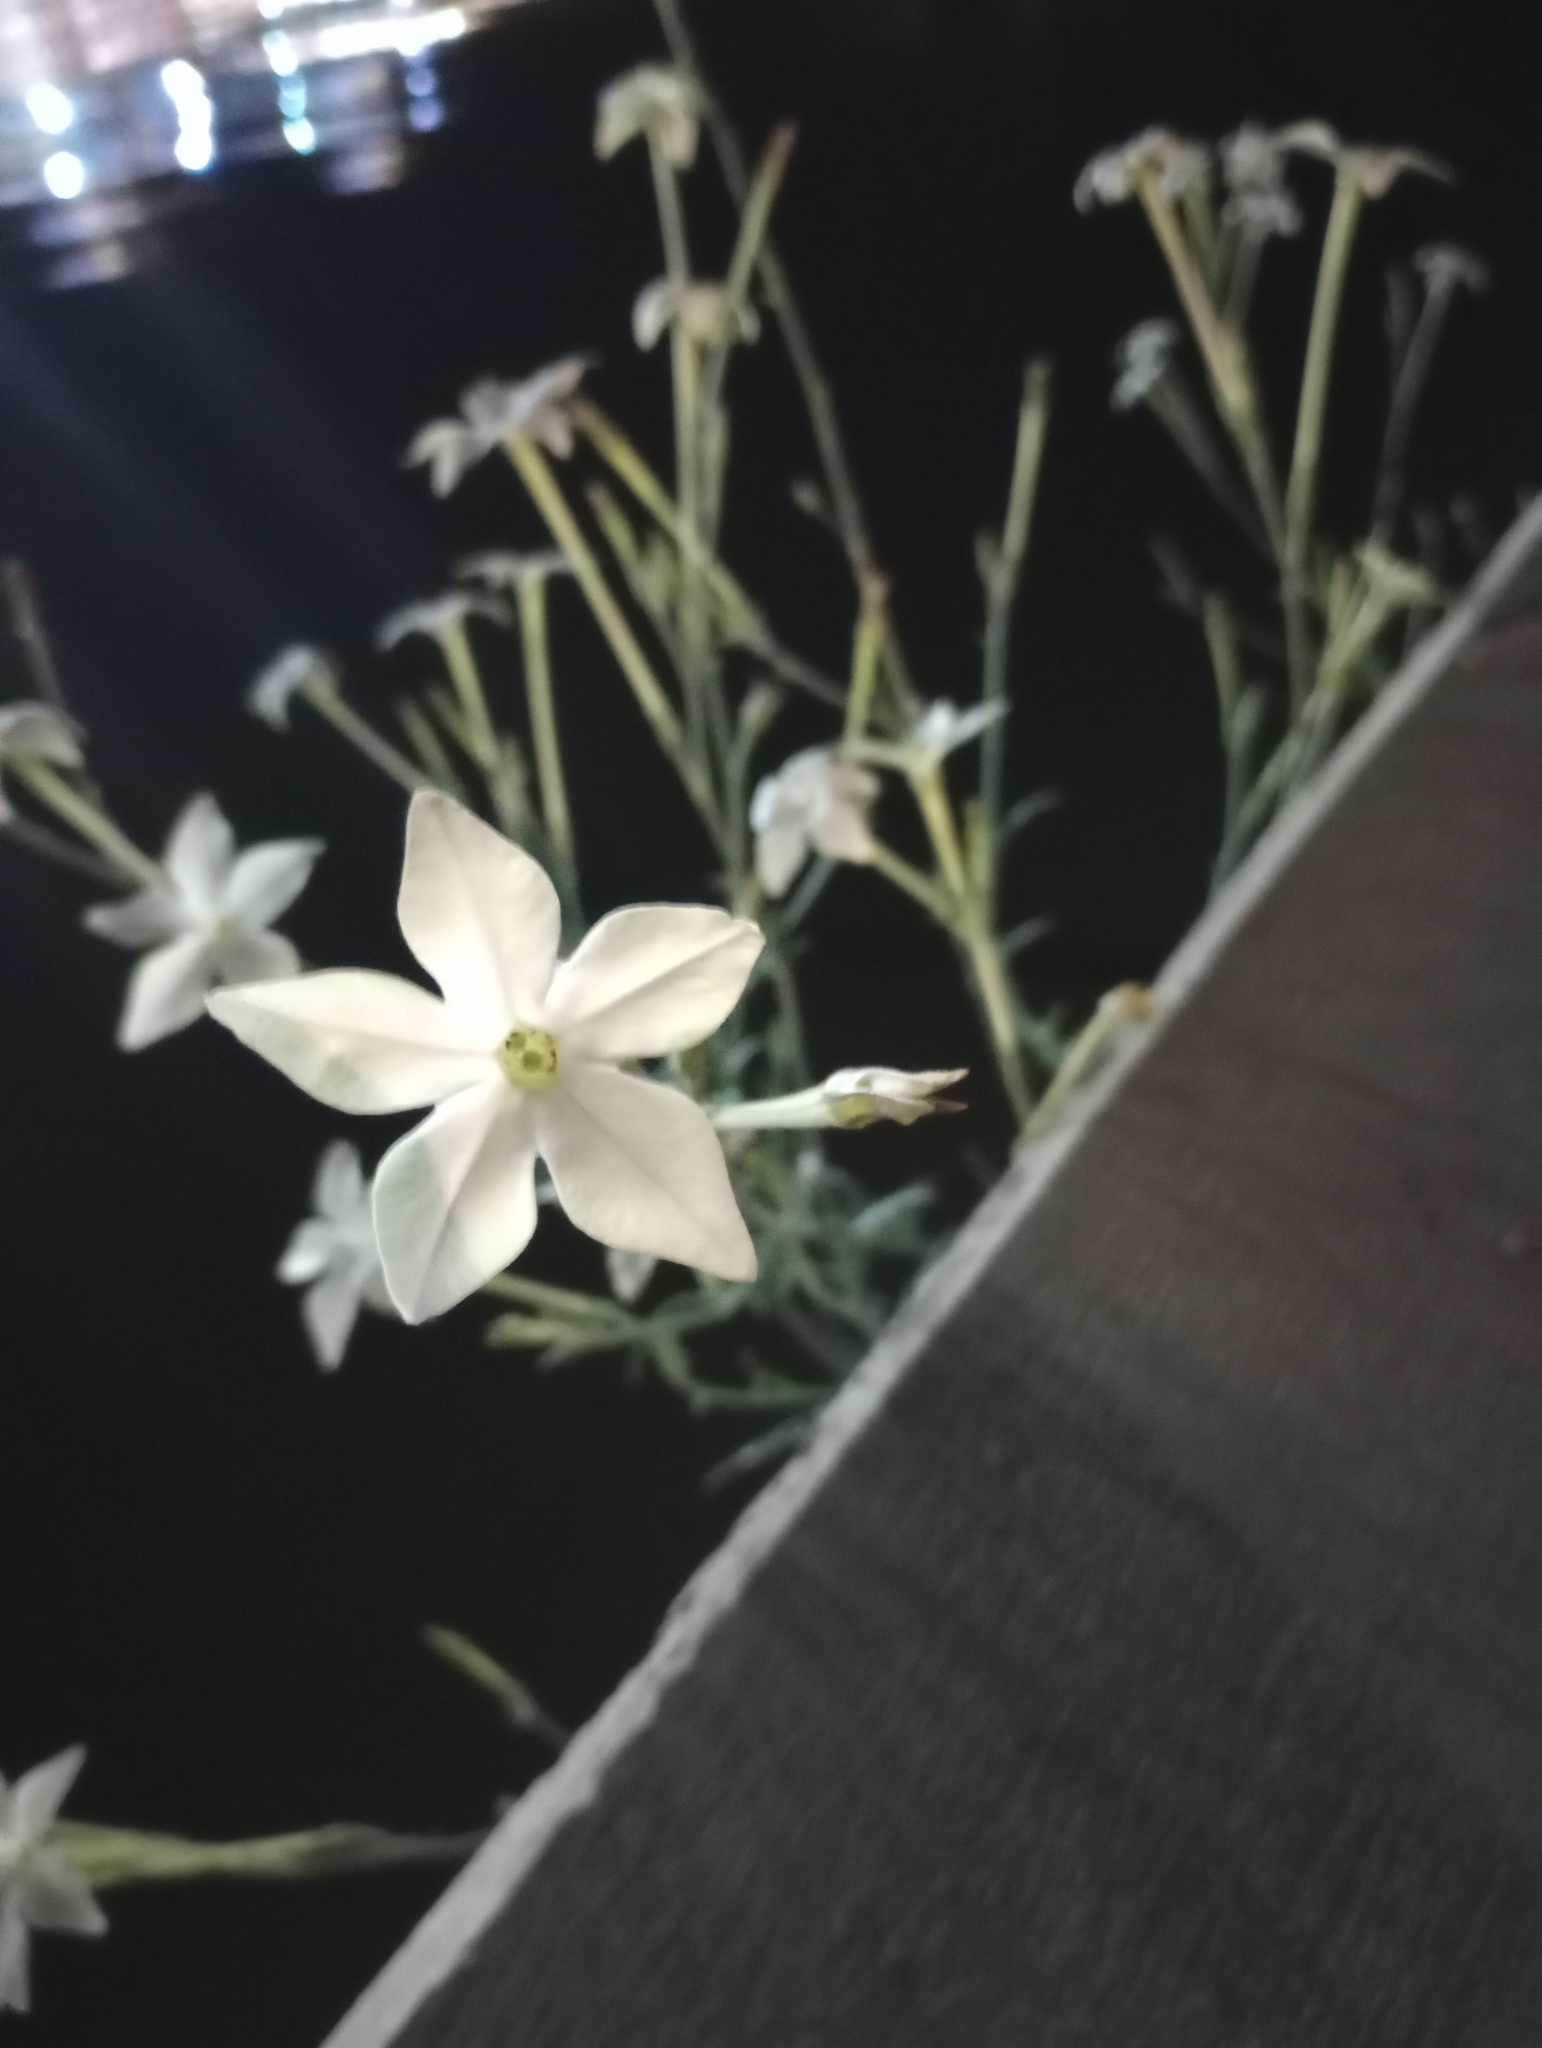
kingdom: Plantae
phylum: Tracheophyta
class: Magnoliopsida
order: Solanales
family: Solanaceae
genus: Nicotiana
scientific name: Nicotiana longiflora
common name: Long-flowered tobacco
